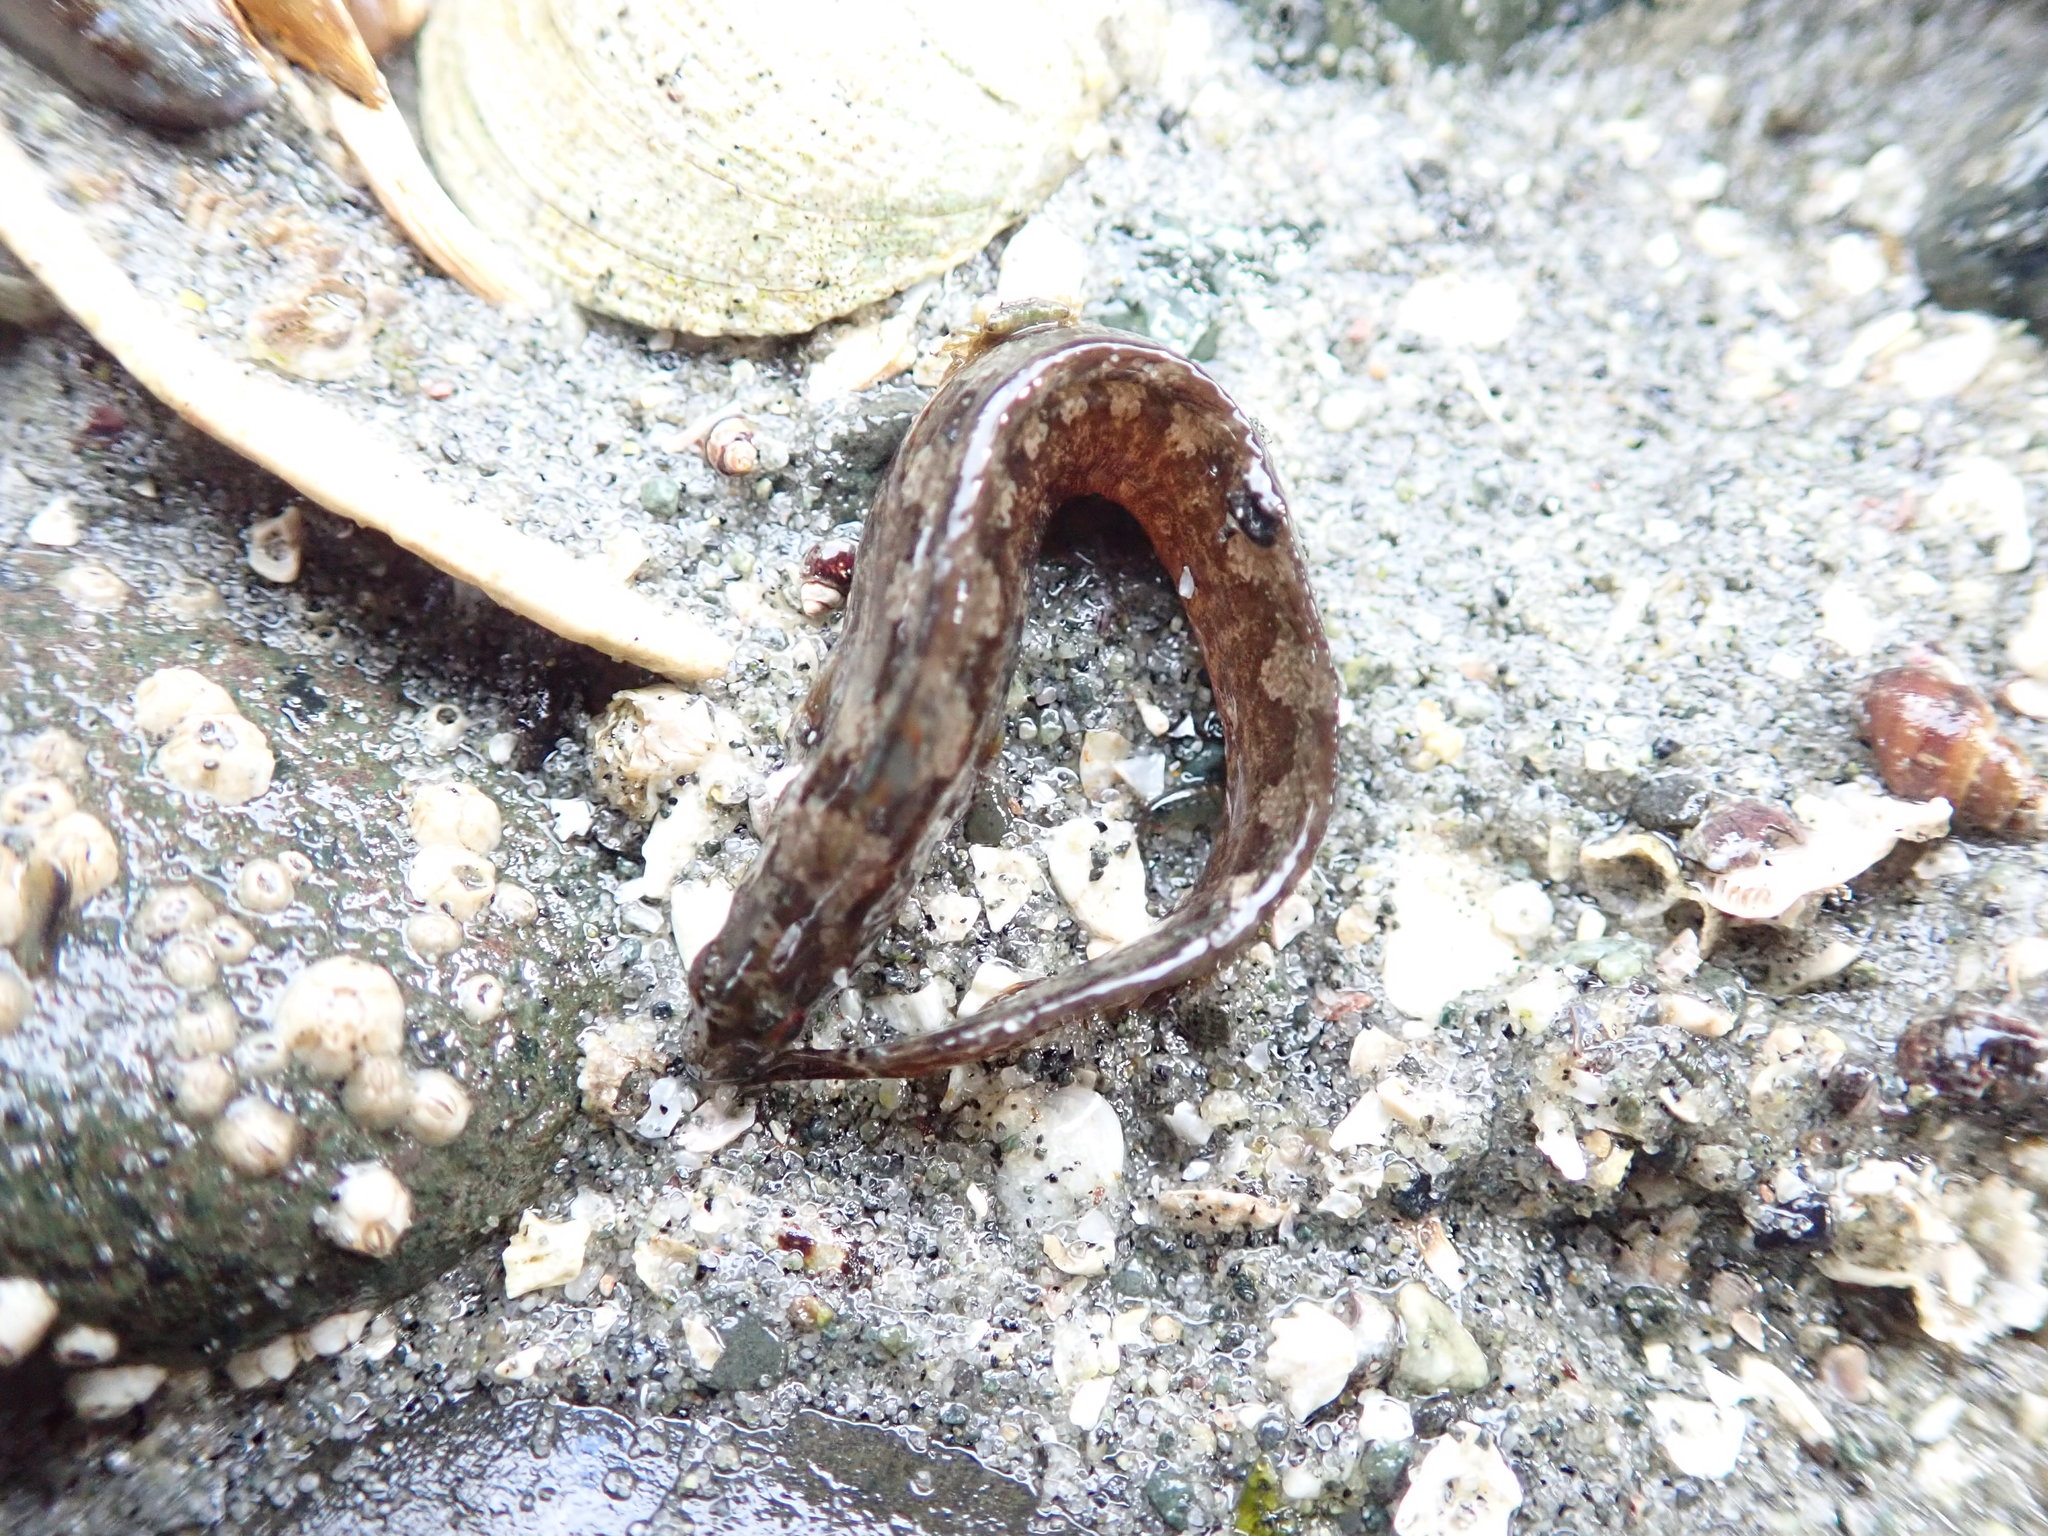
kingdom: Animalia
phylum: Chordata
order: Perciformes
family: Stichaeidae
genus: Anoplarchus
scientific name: Anoplarchus purpurescens
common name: High cockscomb
